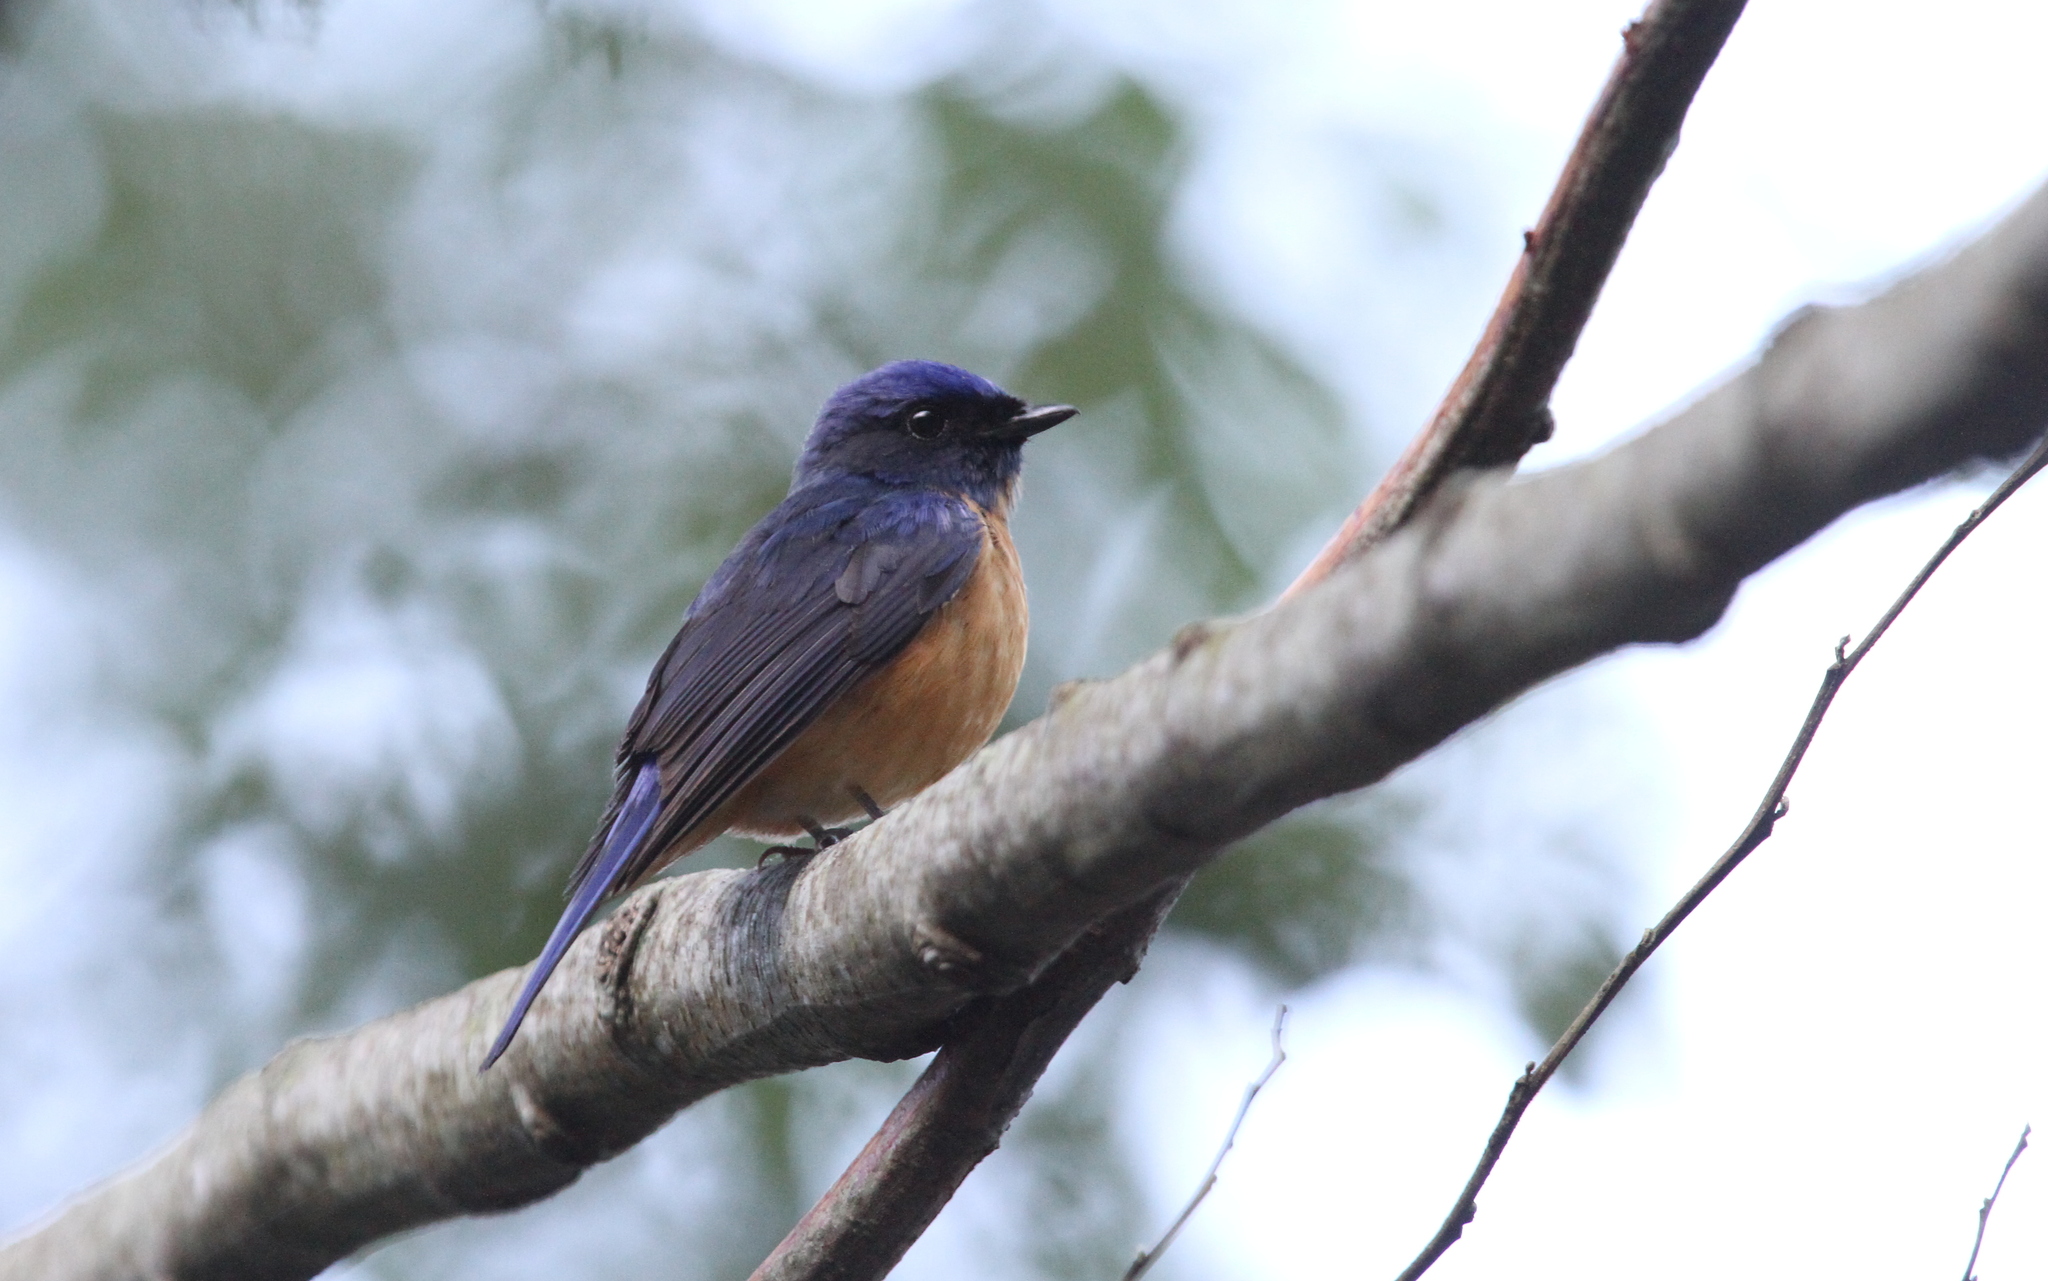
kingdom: Animalia
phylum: Chordata
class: Aves
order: Passeriformes
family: Muscicapidae
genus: Niltava
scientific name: Niltava vivida
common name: Vivid niltava
